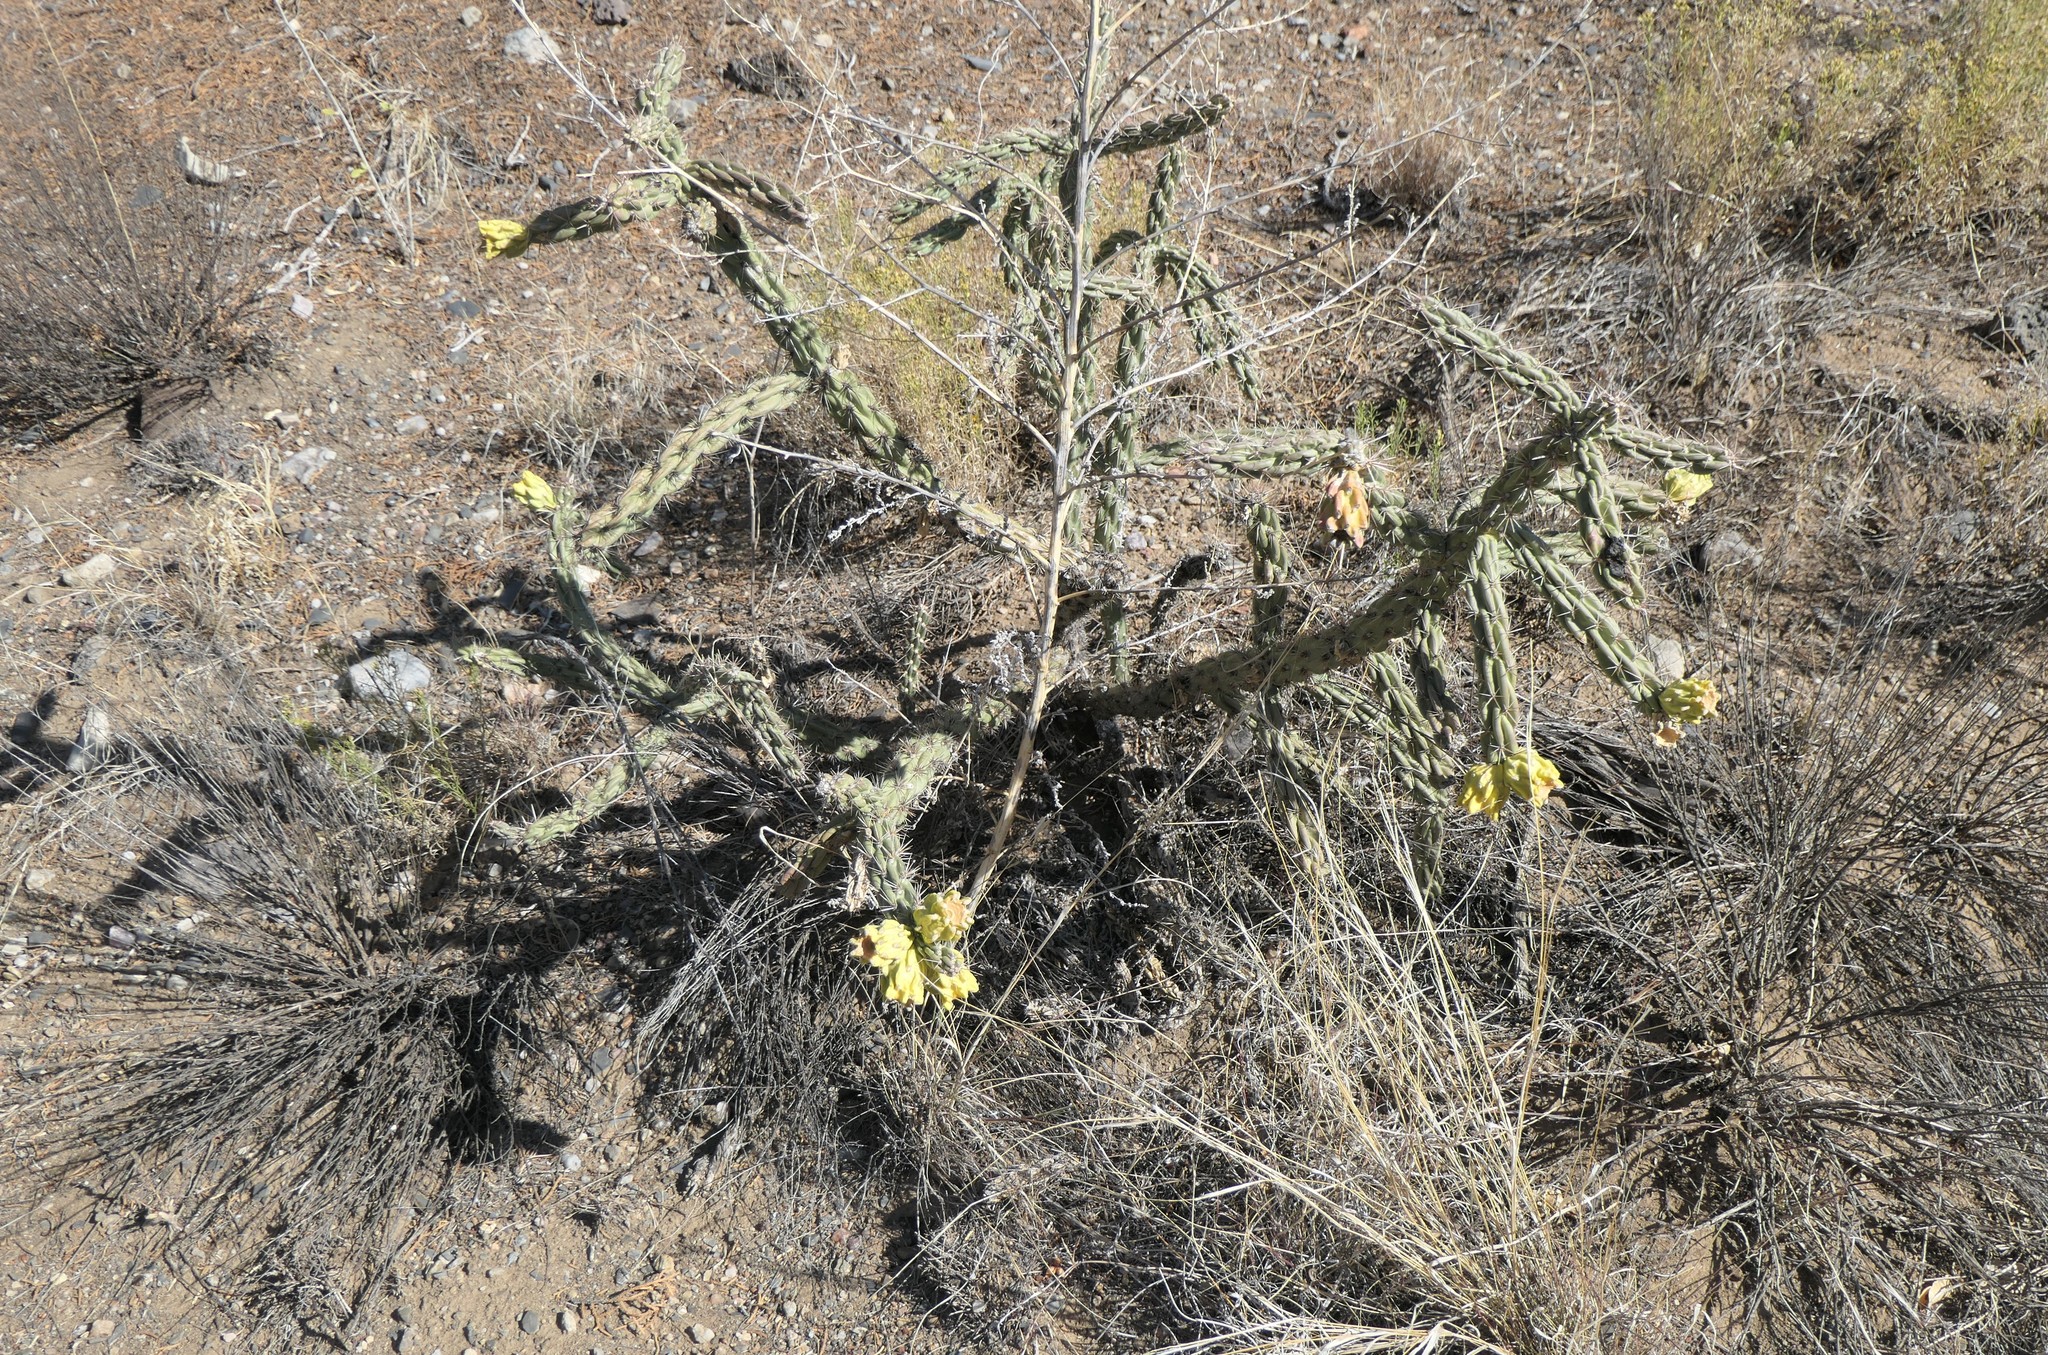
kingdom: Plantae
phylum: Tracheophyta
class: Magnoliopsida
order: Caryophyllales
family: Cactaceae
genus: Cylindropuntia
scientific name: Cylindropuntia imbricata
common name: Candelabrum cactus
